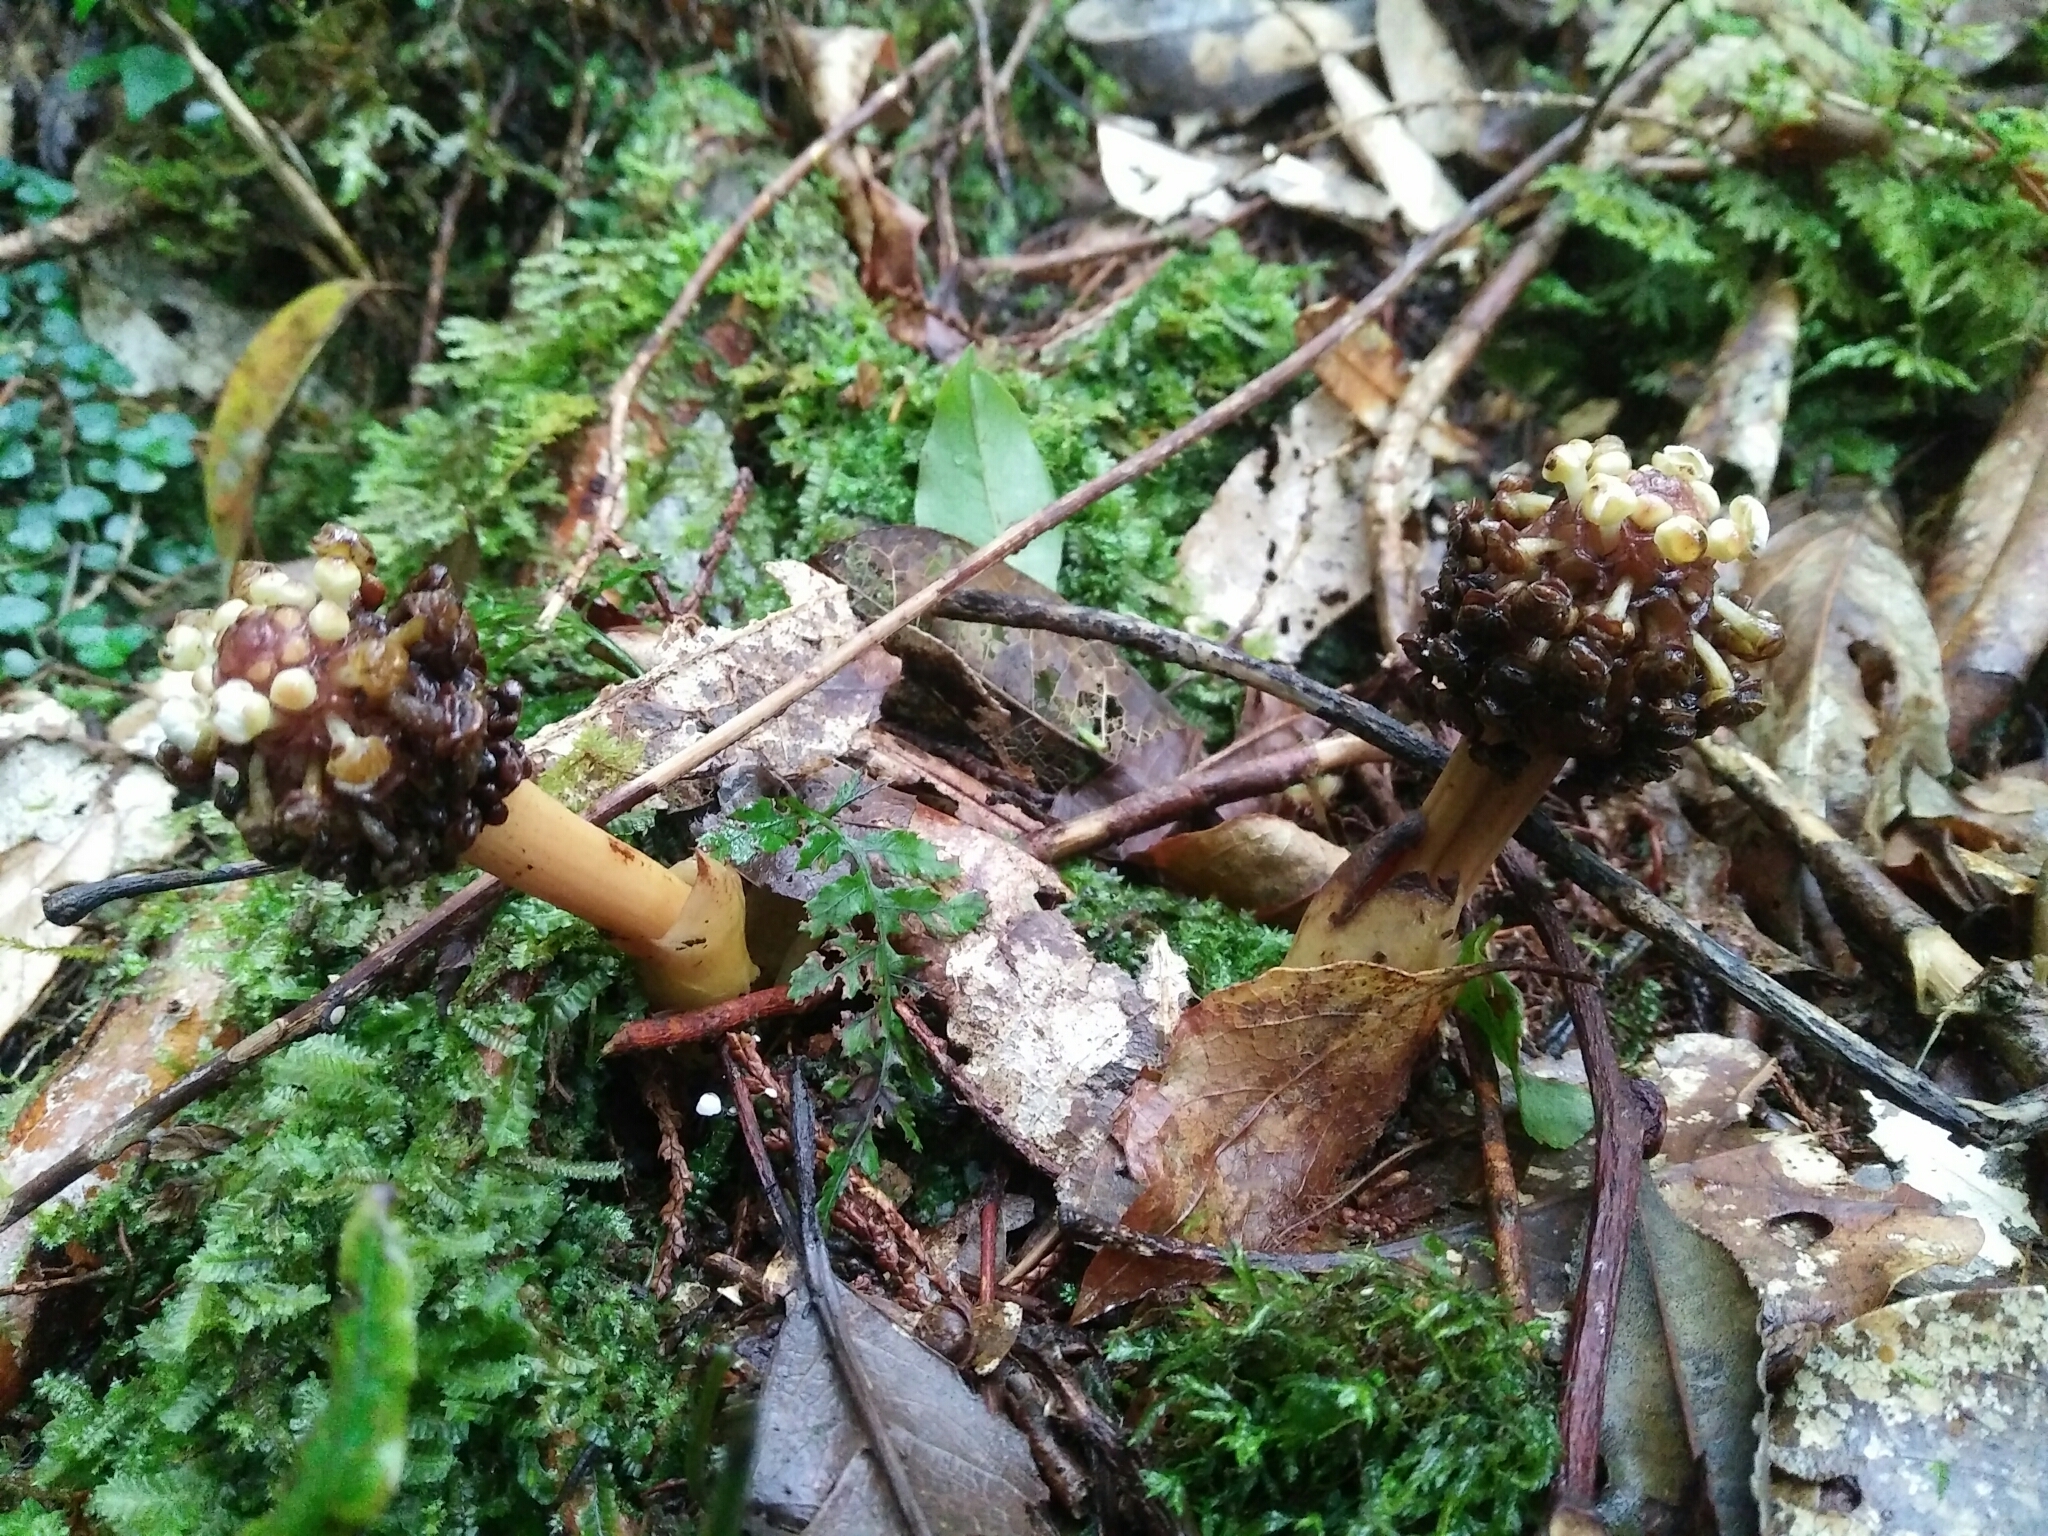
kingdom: Plantae
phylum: Tracheophyta
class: Magnoliopsida
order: Santalales
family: Balanophoraceae
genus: Balanophora
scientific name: Balanophora harlandii
